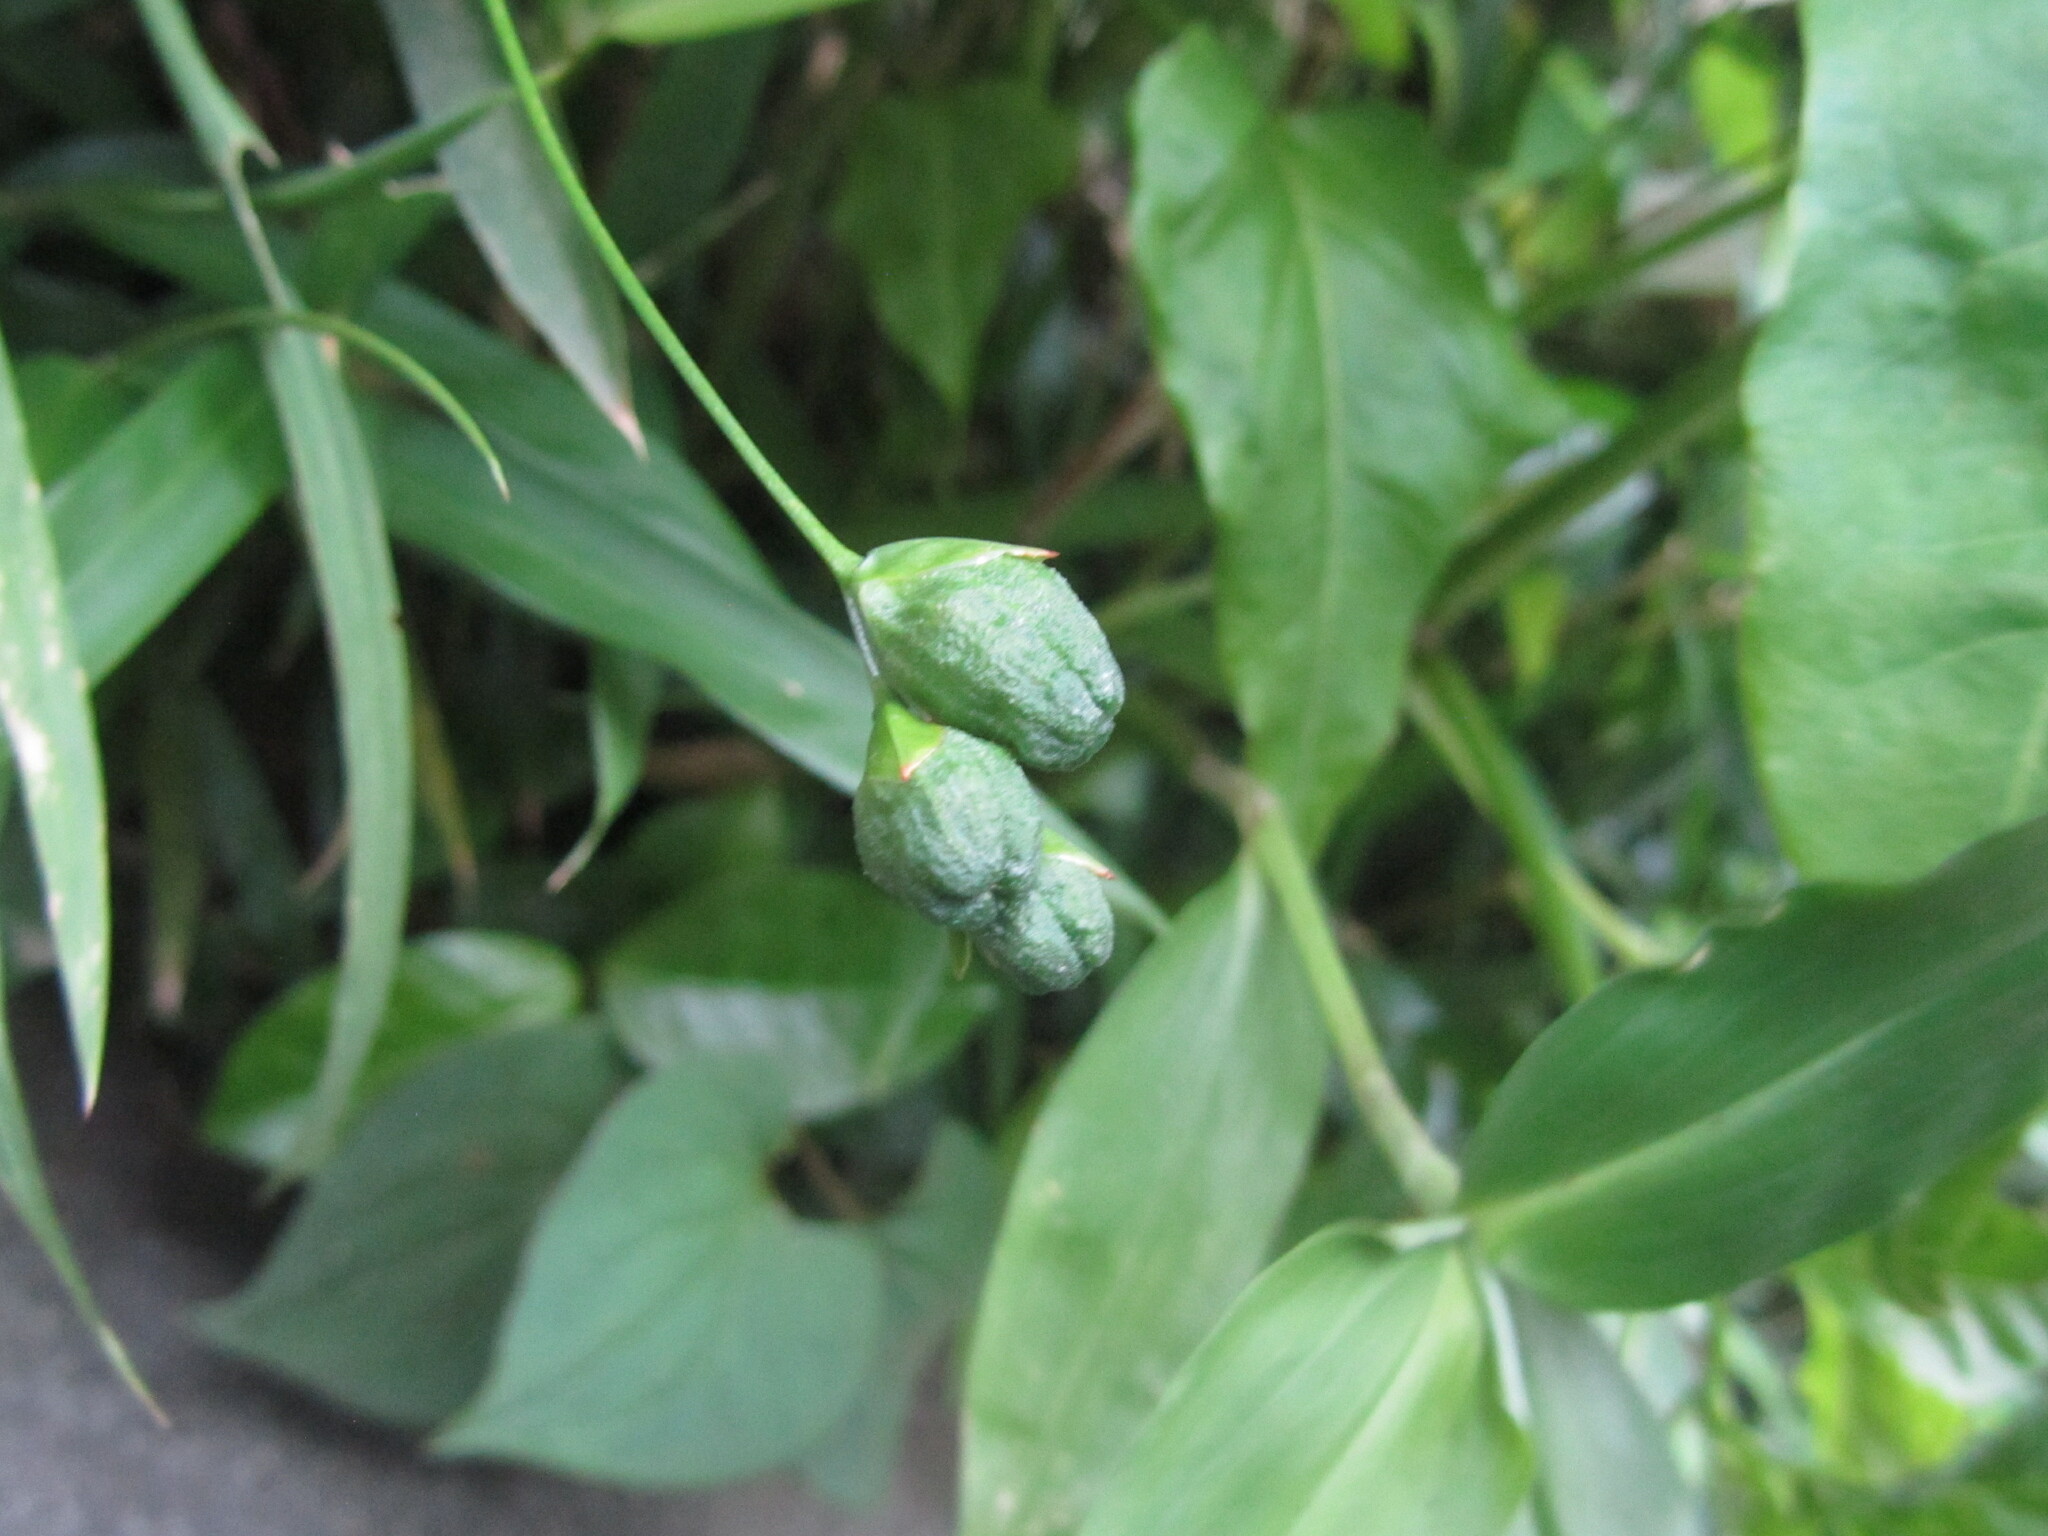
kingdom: Plantae
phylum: Tracheophyta
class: Liliopsida
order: Asparagales
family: Iridaceae
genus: Freesia
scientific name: Freesia laxa
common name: False freesia
